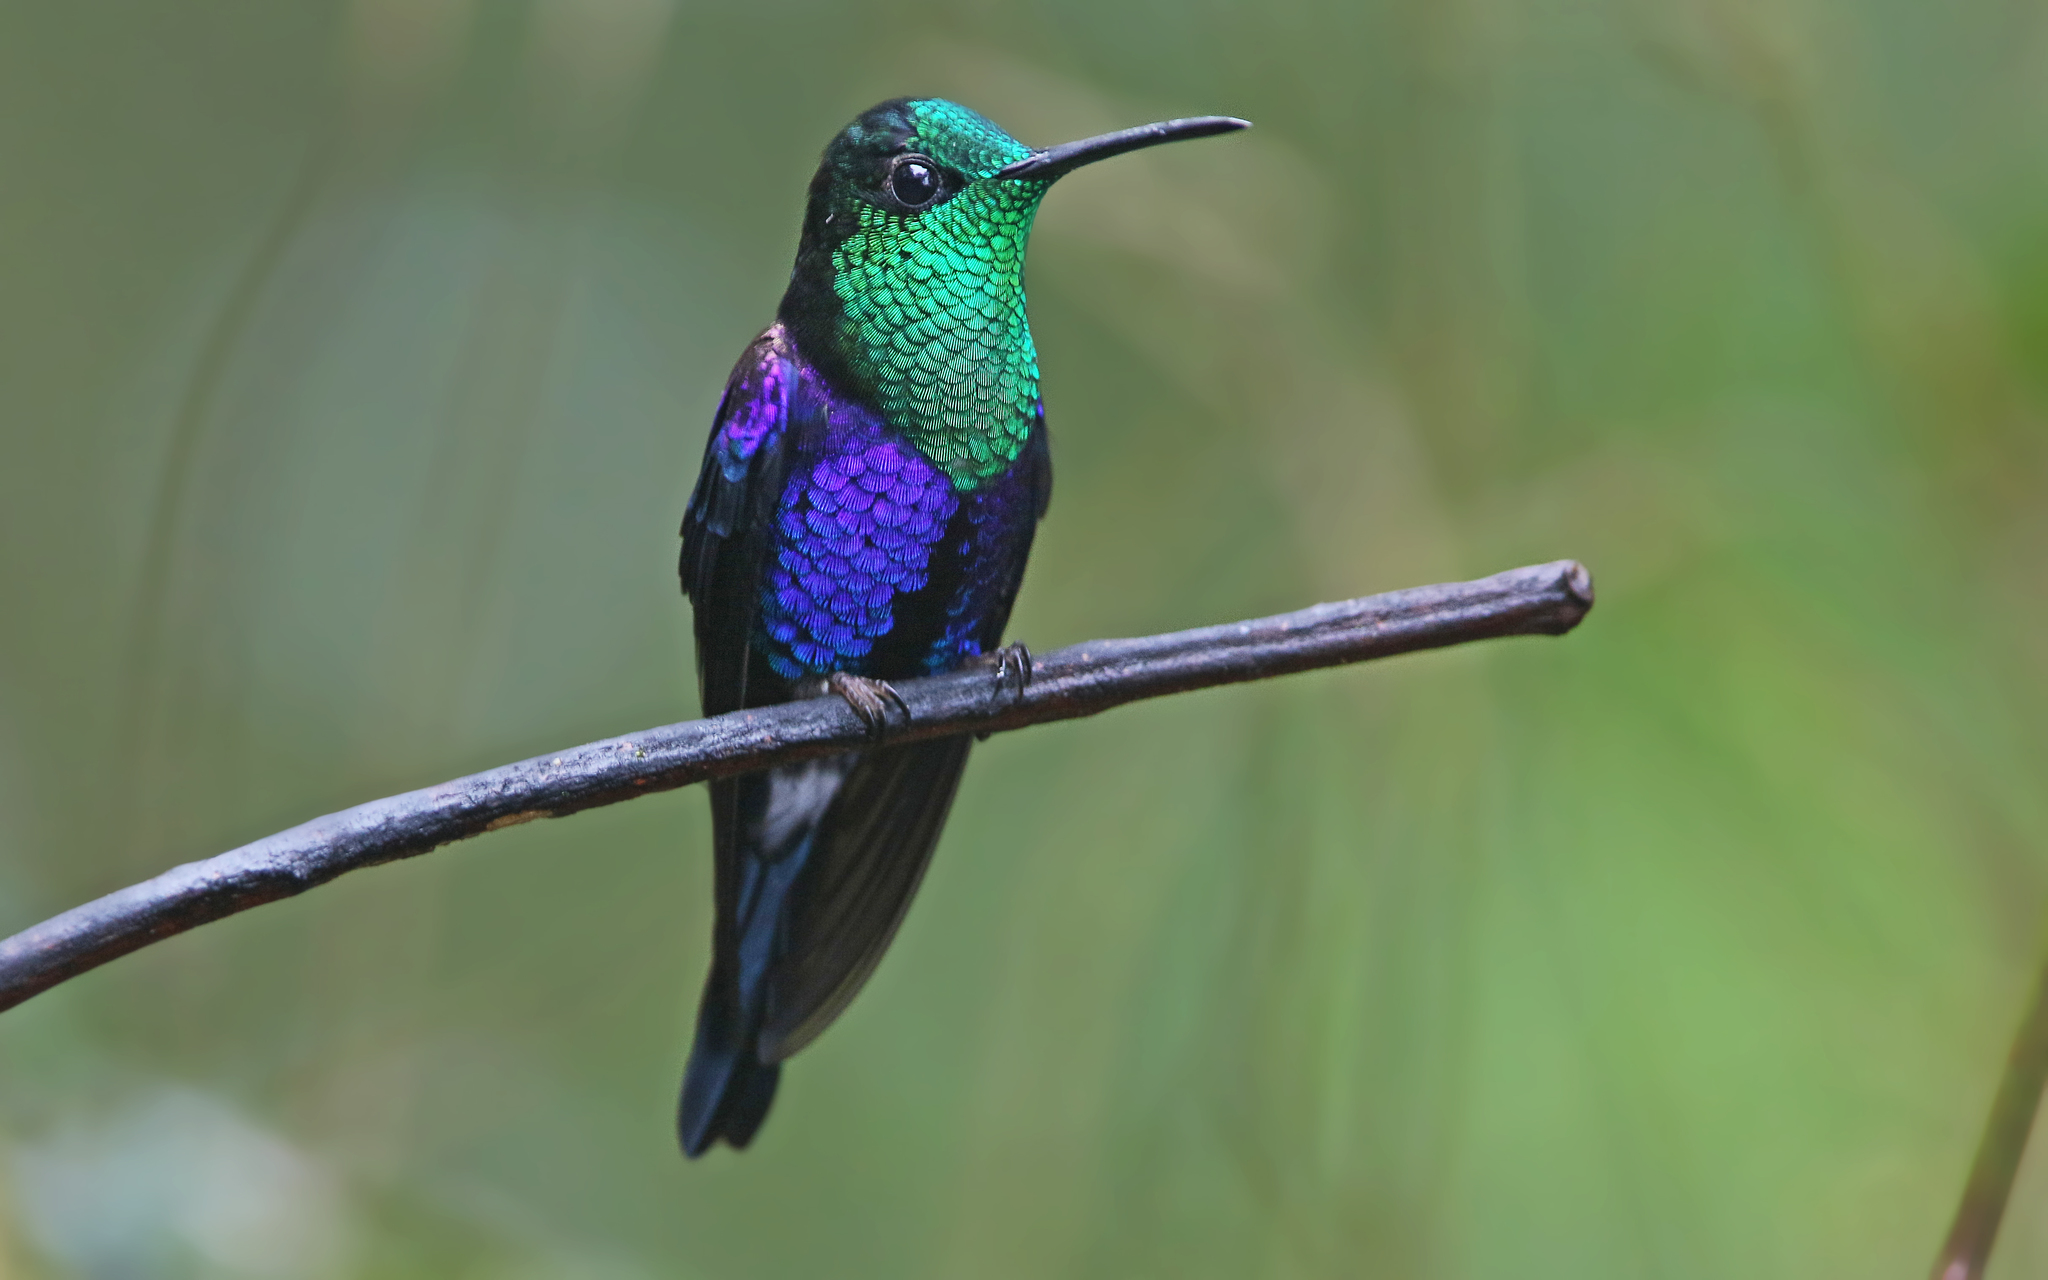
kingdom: Animalia
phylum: Chordata
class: Aves
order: Apodiformes
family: Trochilidae
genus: Thalurania
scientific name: Thalurania colombica
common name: Crowned woodnymph
